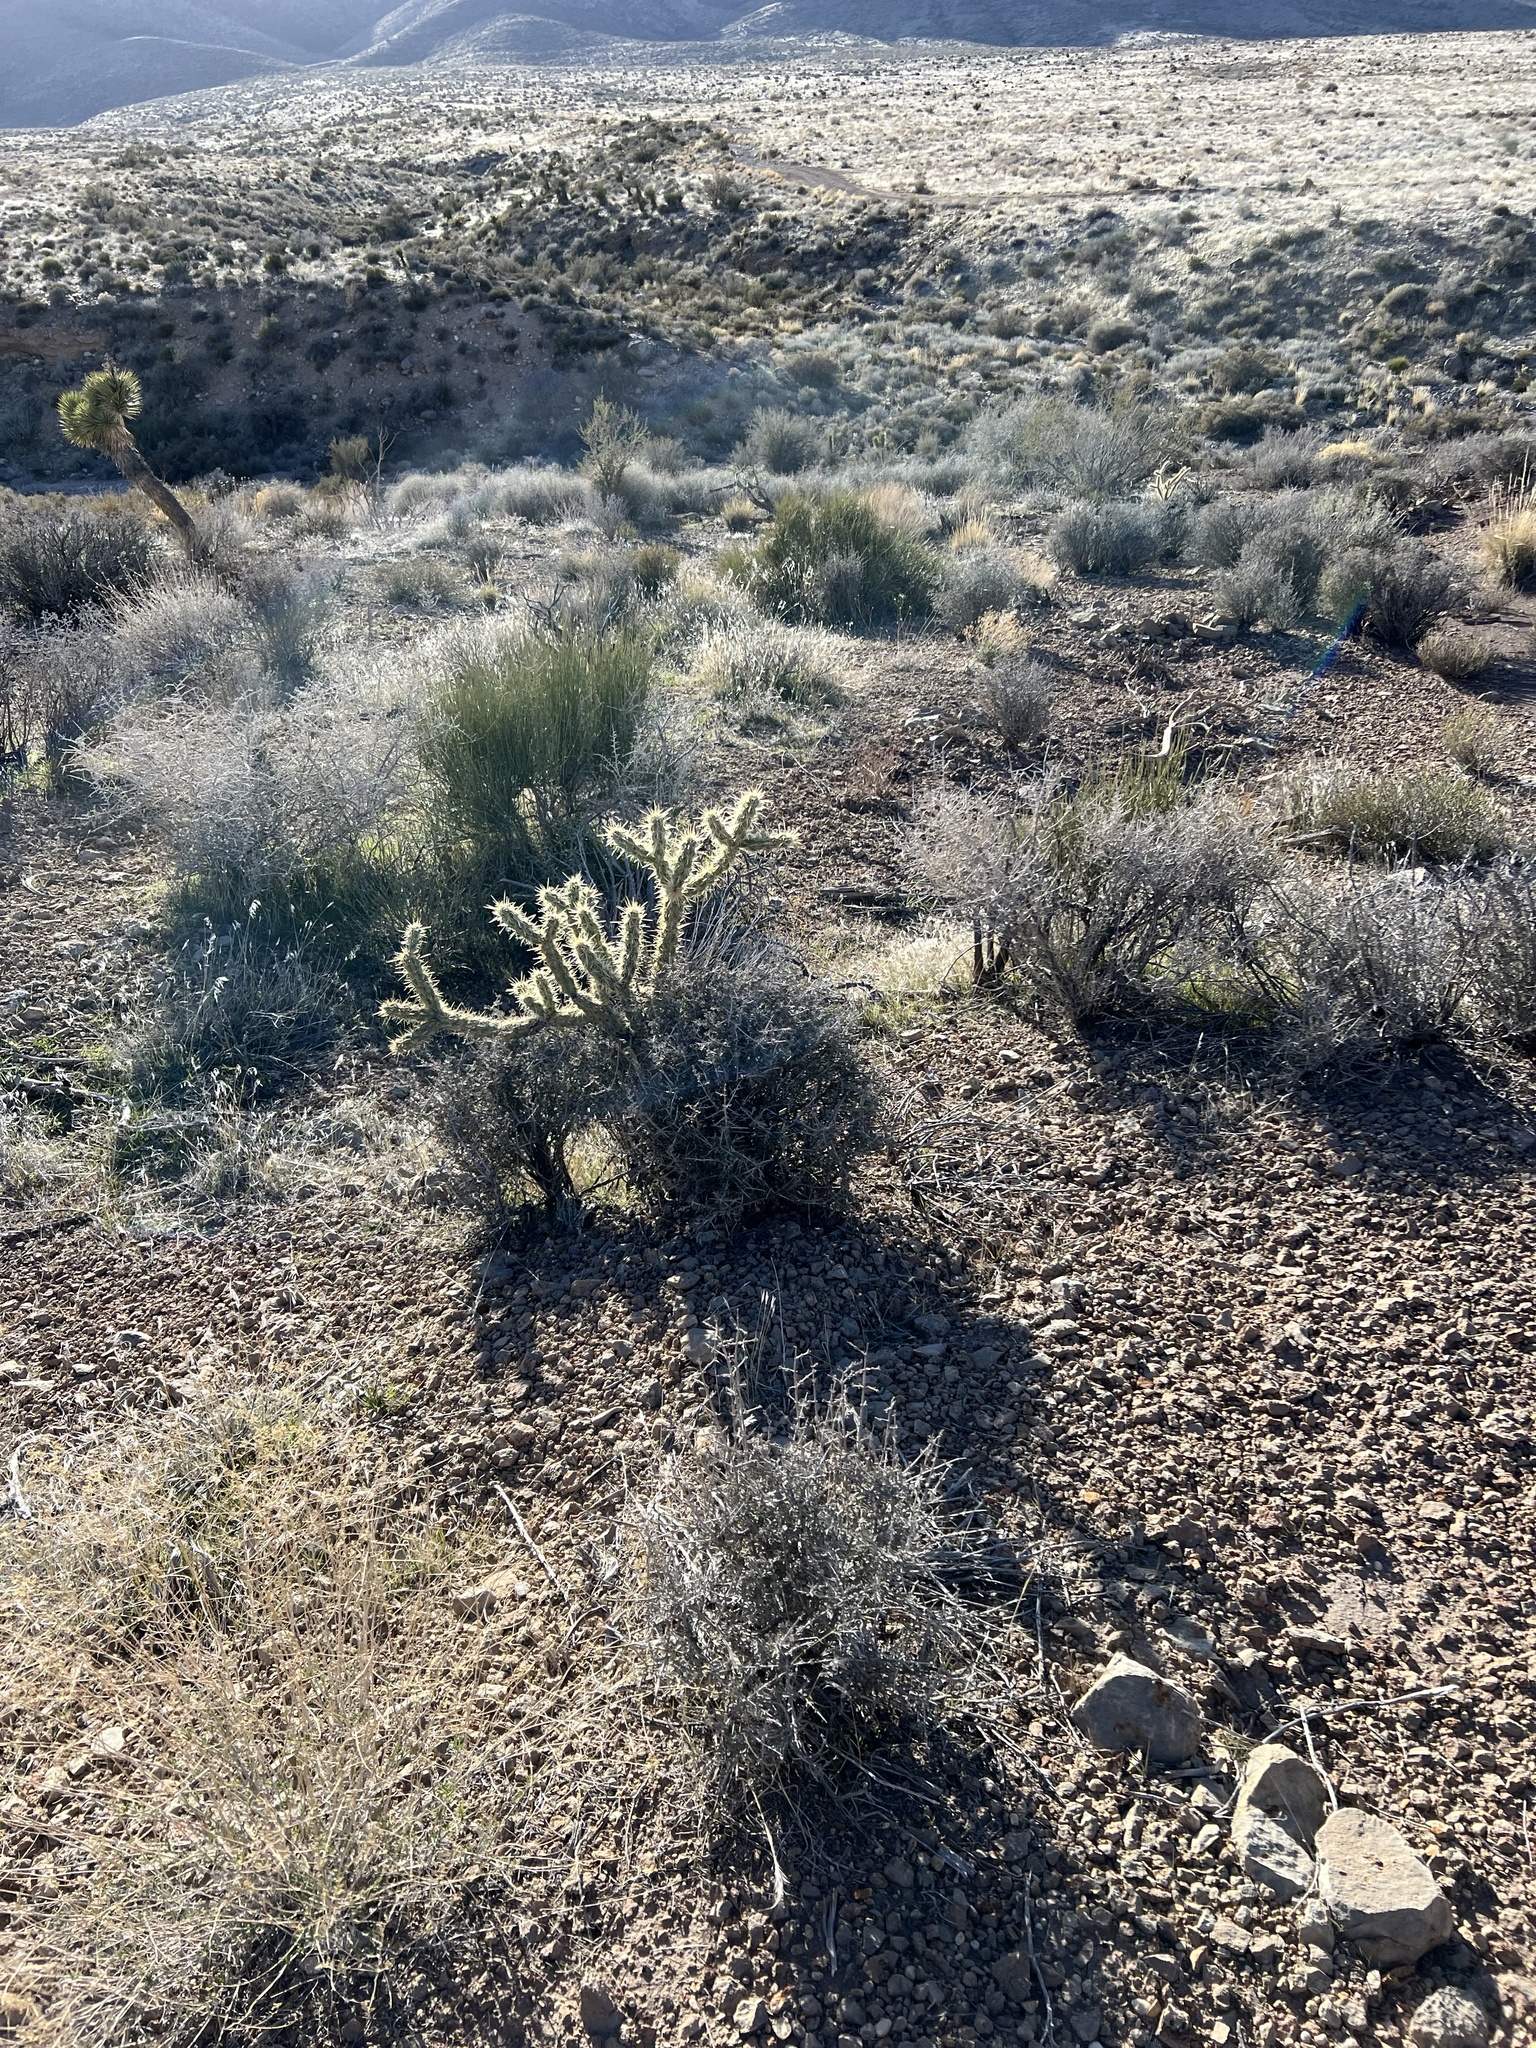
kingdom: Plantae
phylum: Tracheophyta
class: Magnoliopsida
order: Caryophyllales
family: Cactaceae
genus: Cylindropuntia
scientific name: Cylindropuntia acanthocarpa
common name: Buckhorn cholla
